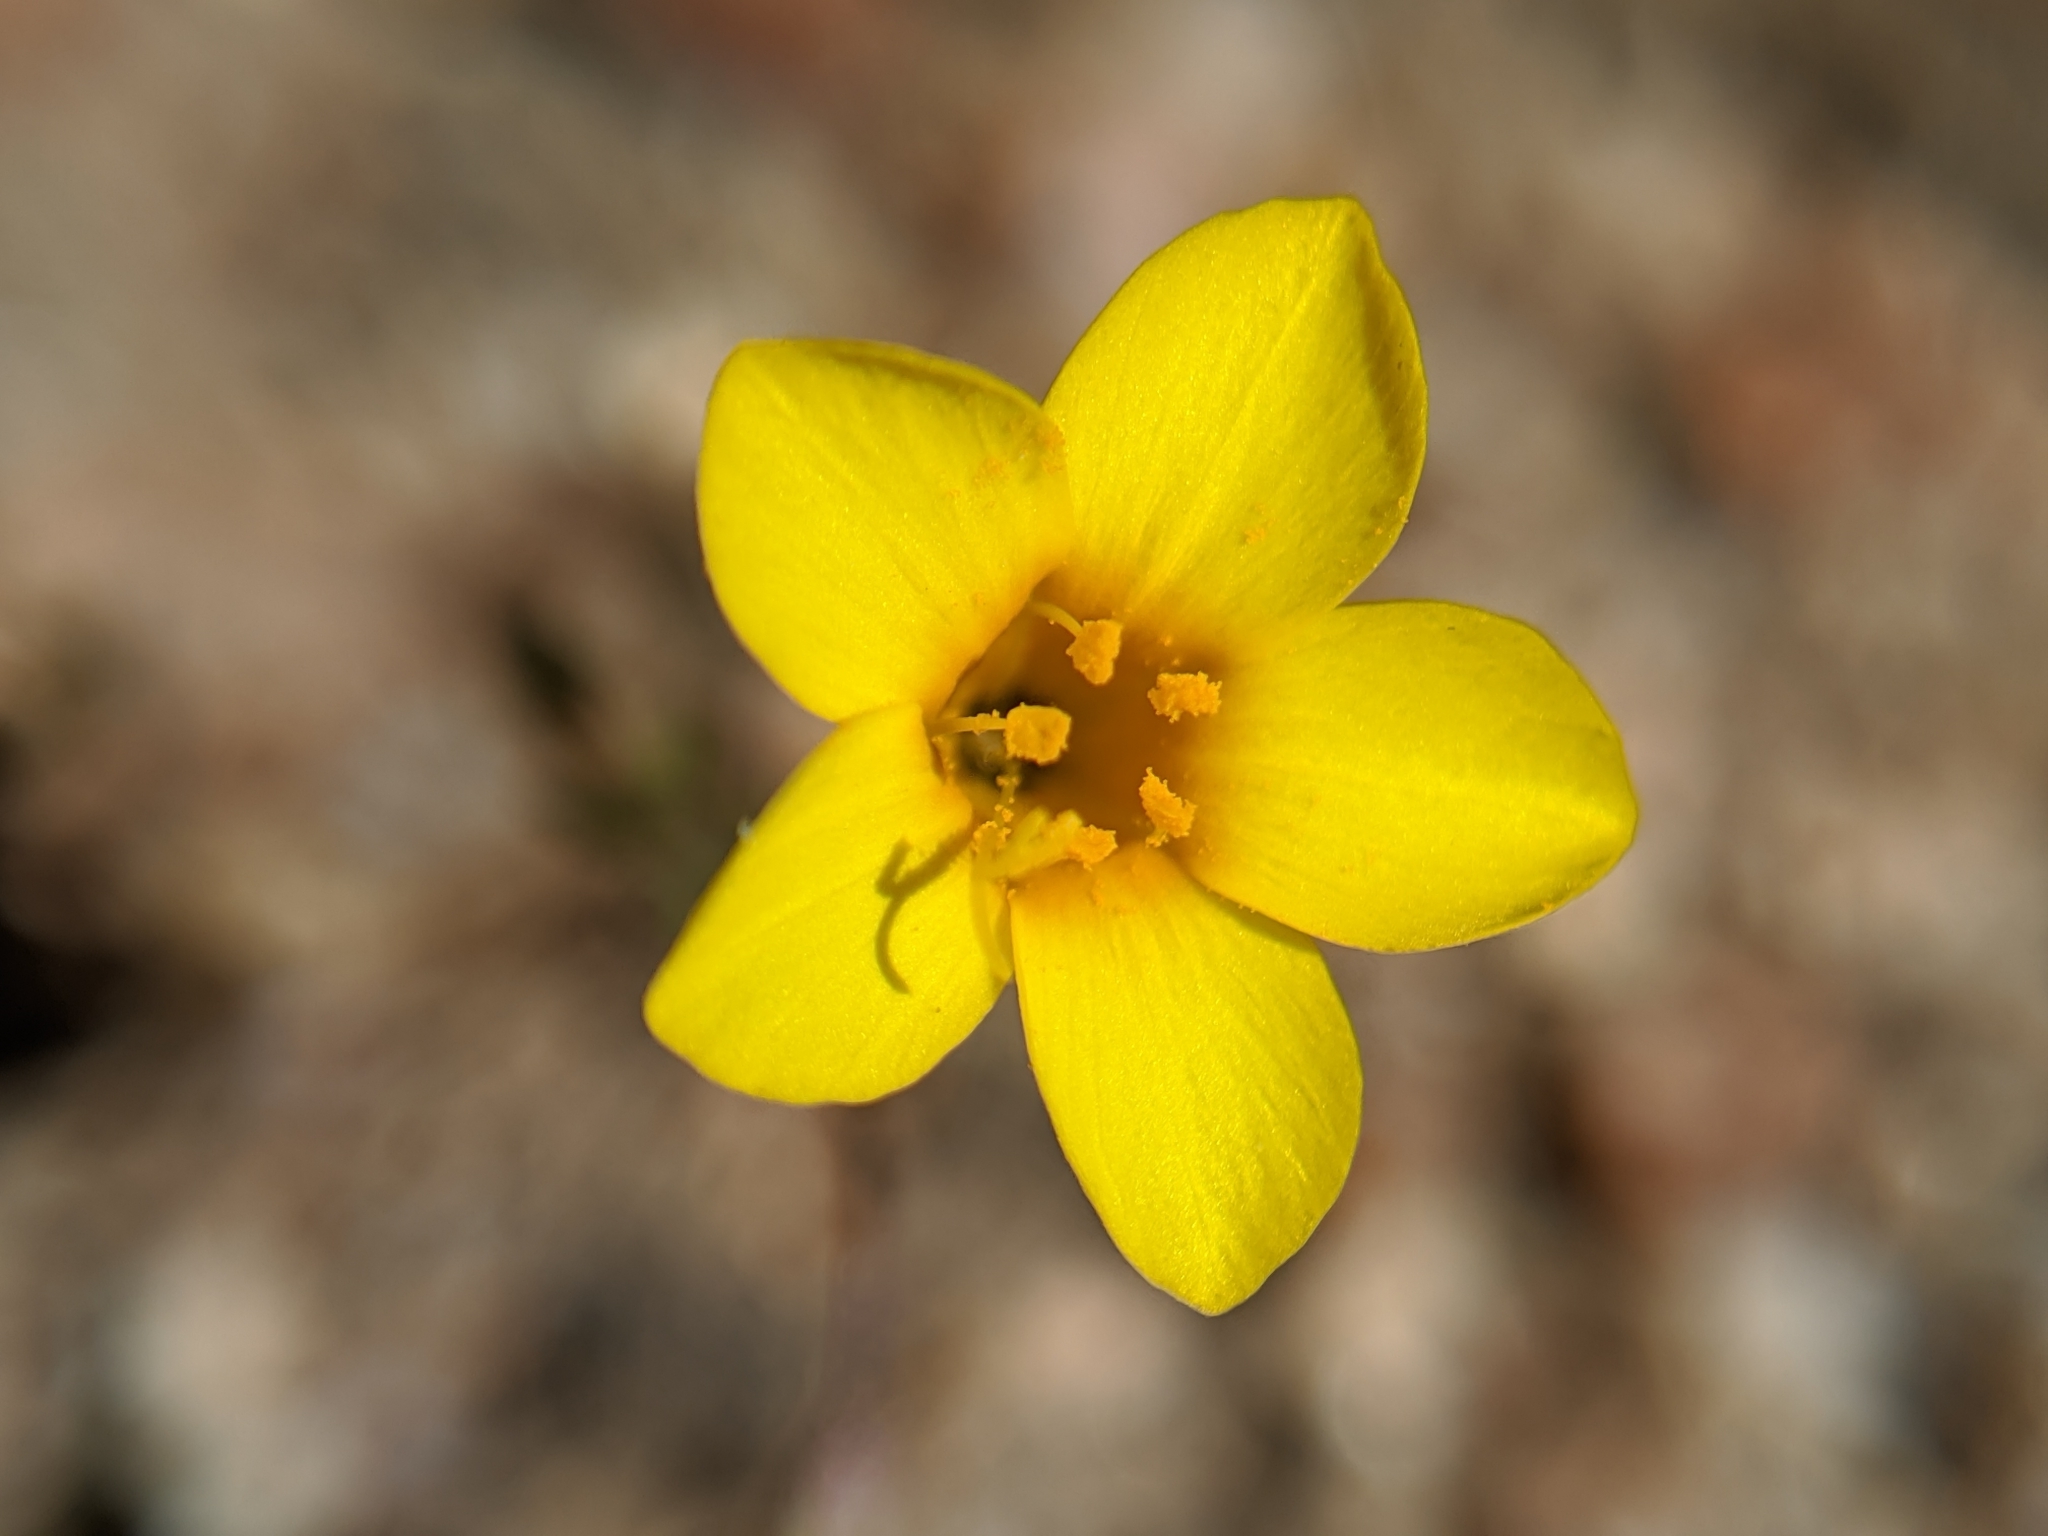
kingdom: Plantae
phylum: Tracheophyta
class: Magnoliopsida
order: Ericales
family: Polemoniaceae
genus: Leptosiphon
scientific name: Leptosiphon chrysanthus
